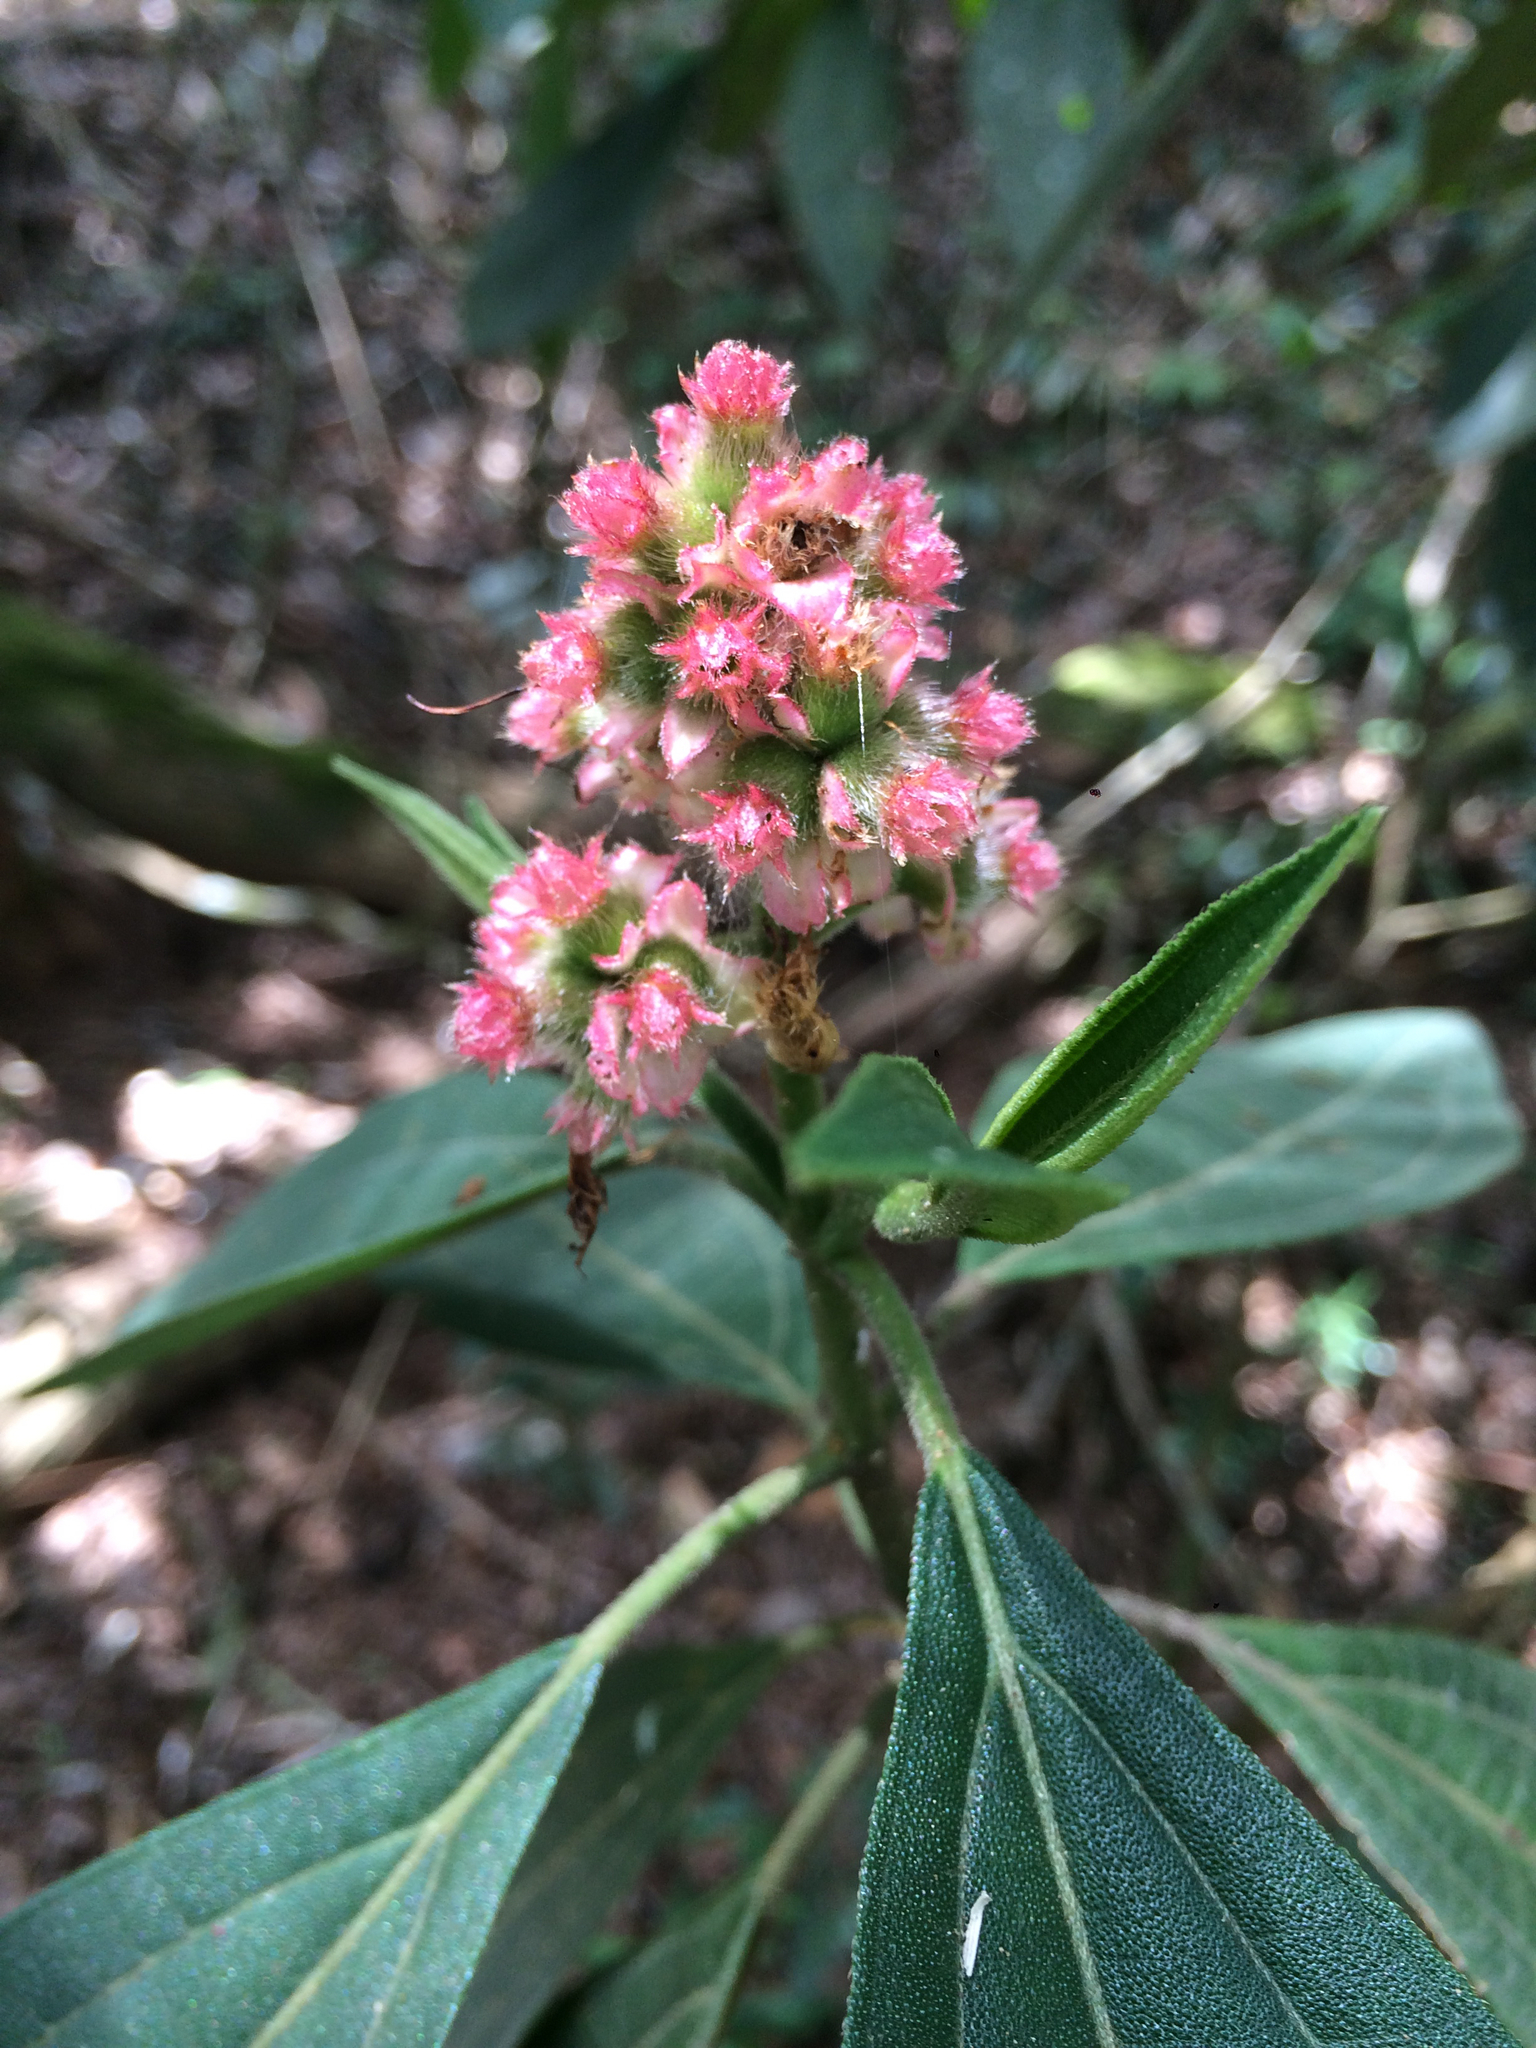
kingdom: Plantae
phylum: Tracheophyta
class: Magnoliopsida
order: Myrtales
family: Melastomataceae
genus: Miconia
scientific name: Miconia melastomoides
